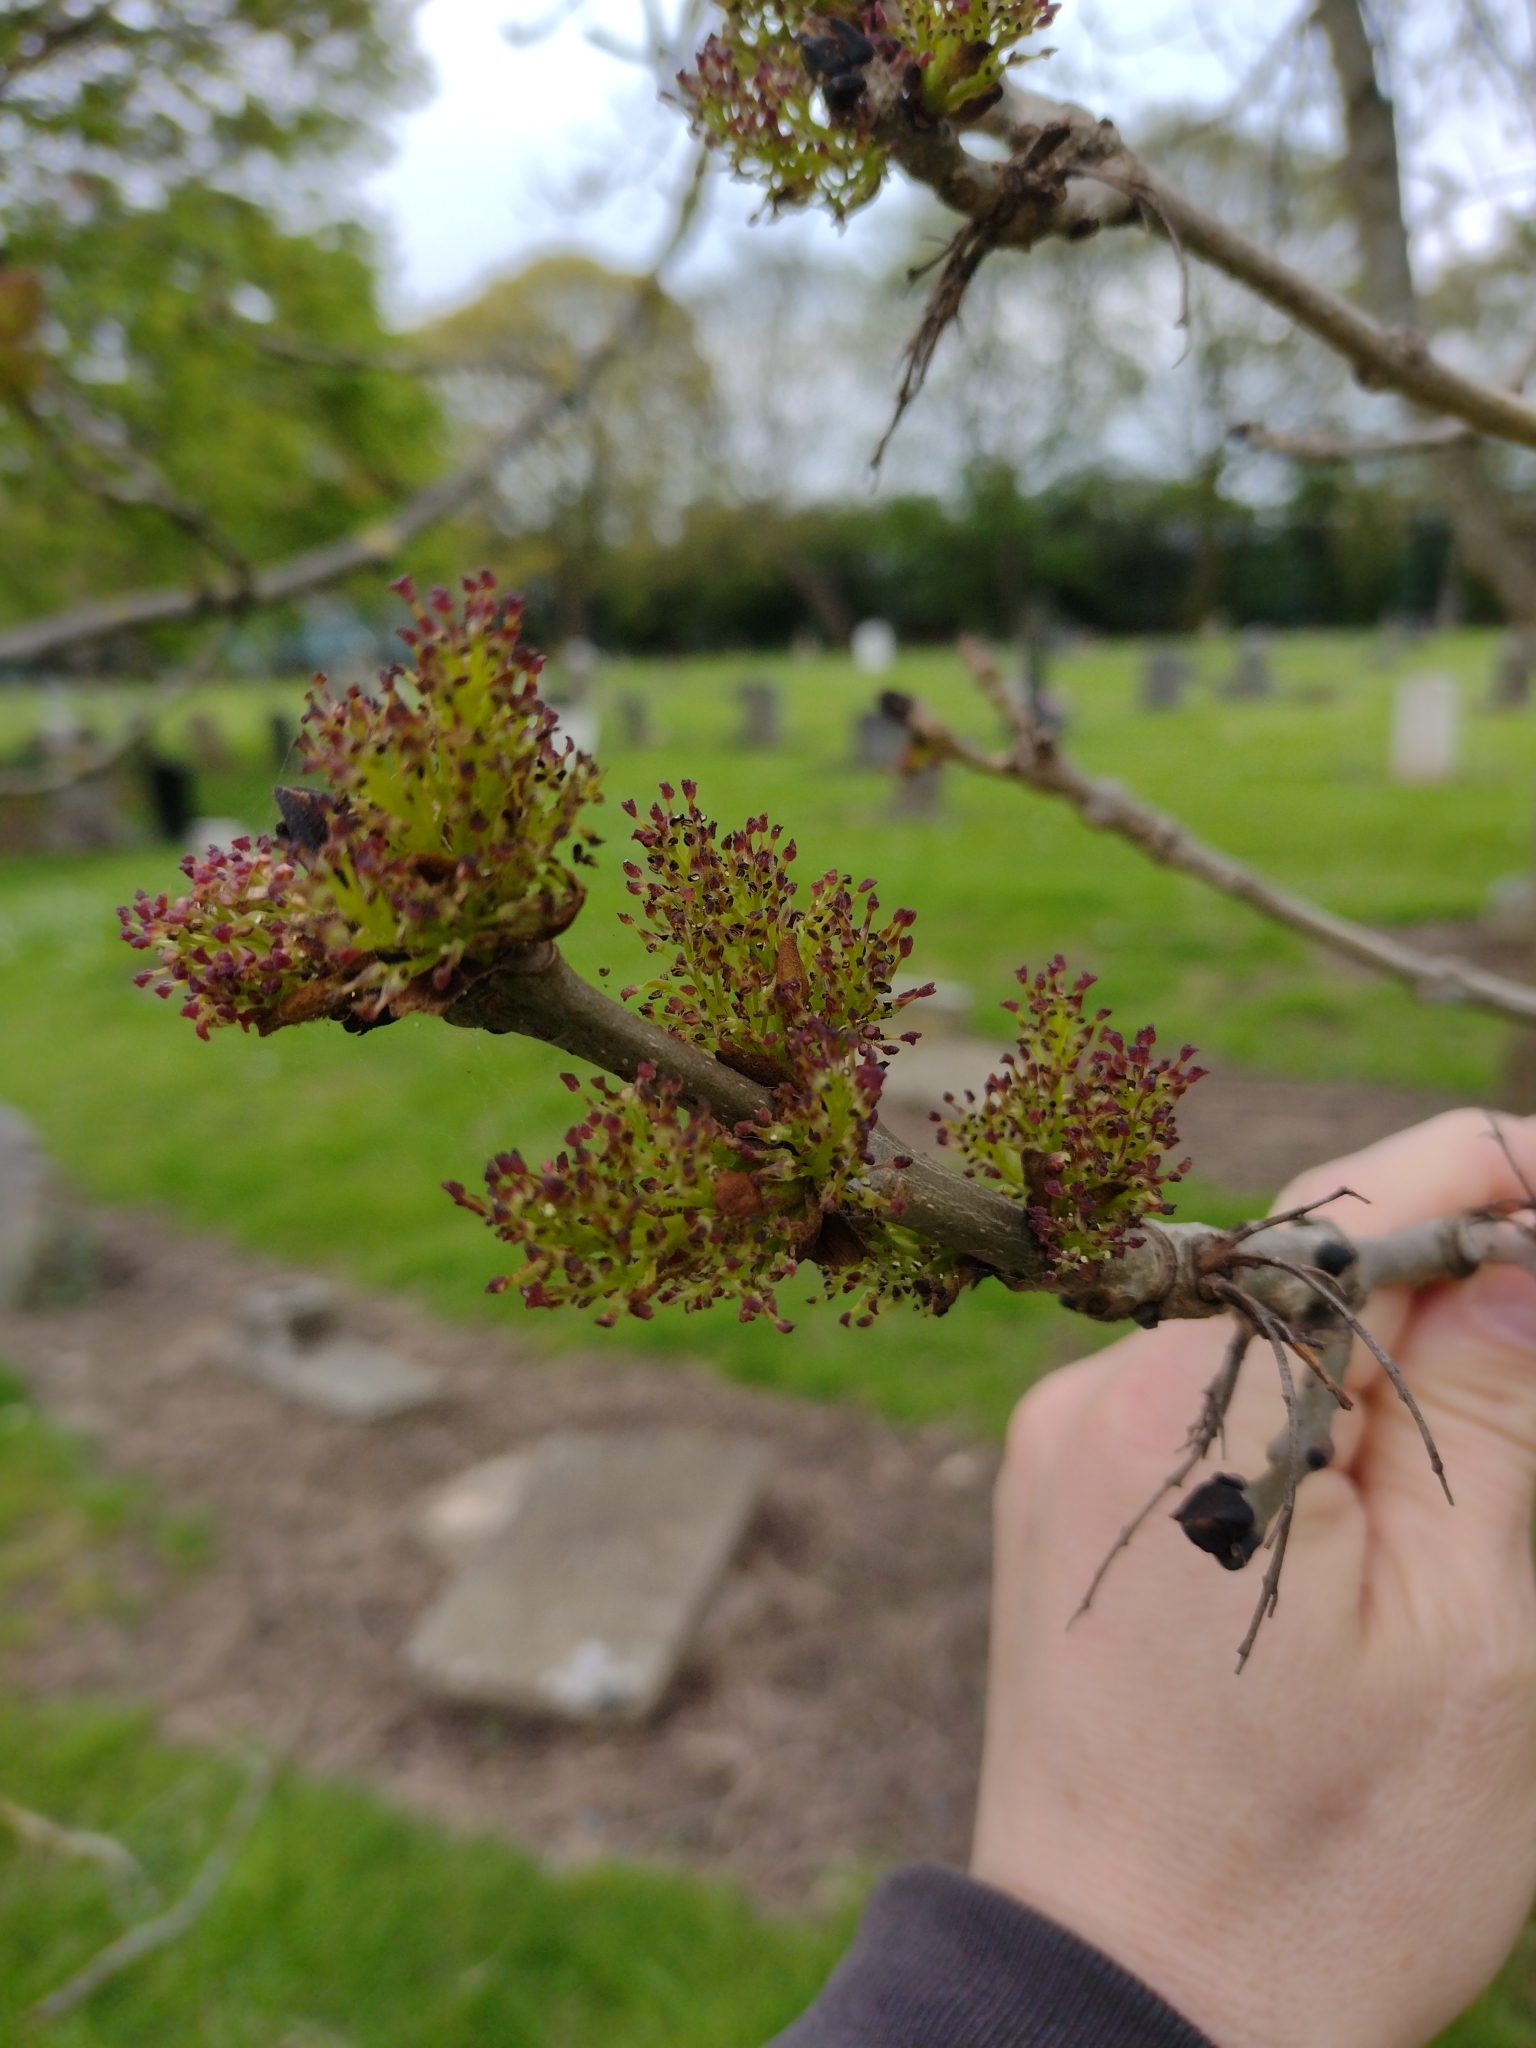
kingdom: Plantae
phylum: Tracheophyta
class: Magnoliopsida
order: Lamiales
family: Oleaceae
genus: Fraxinus
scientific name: Fraxinus excelsior
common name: European ash
